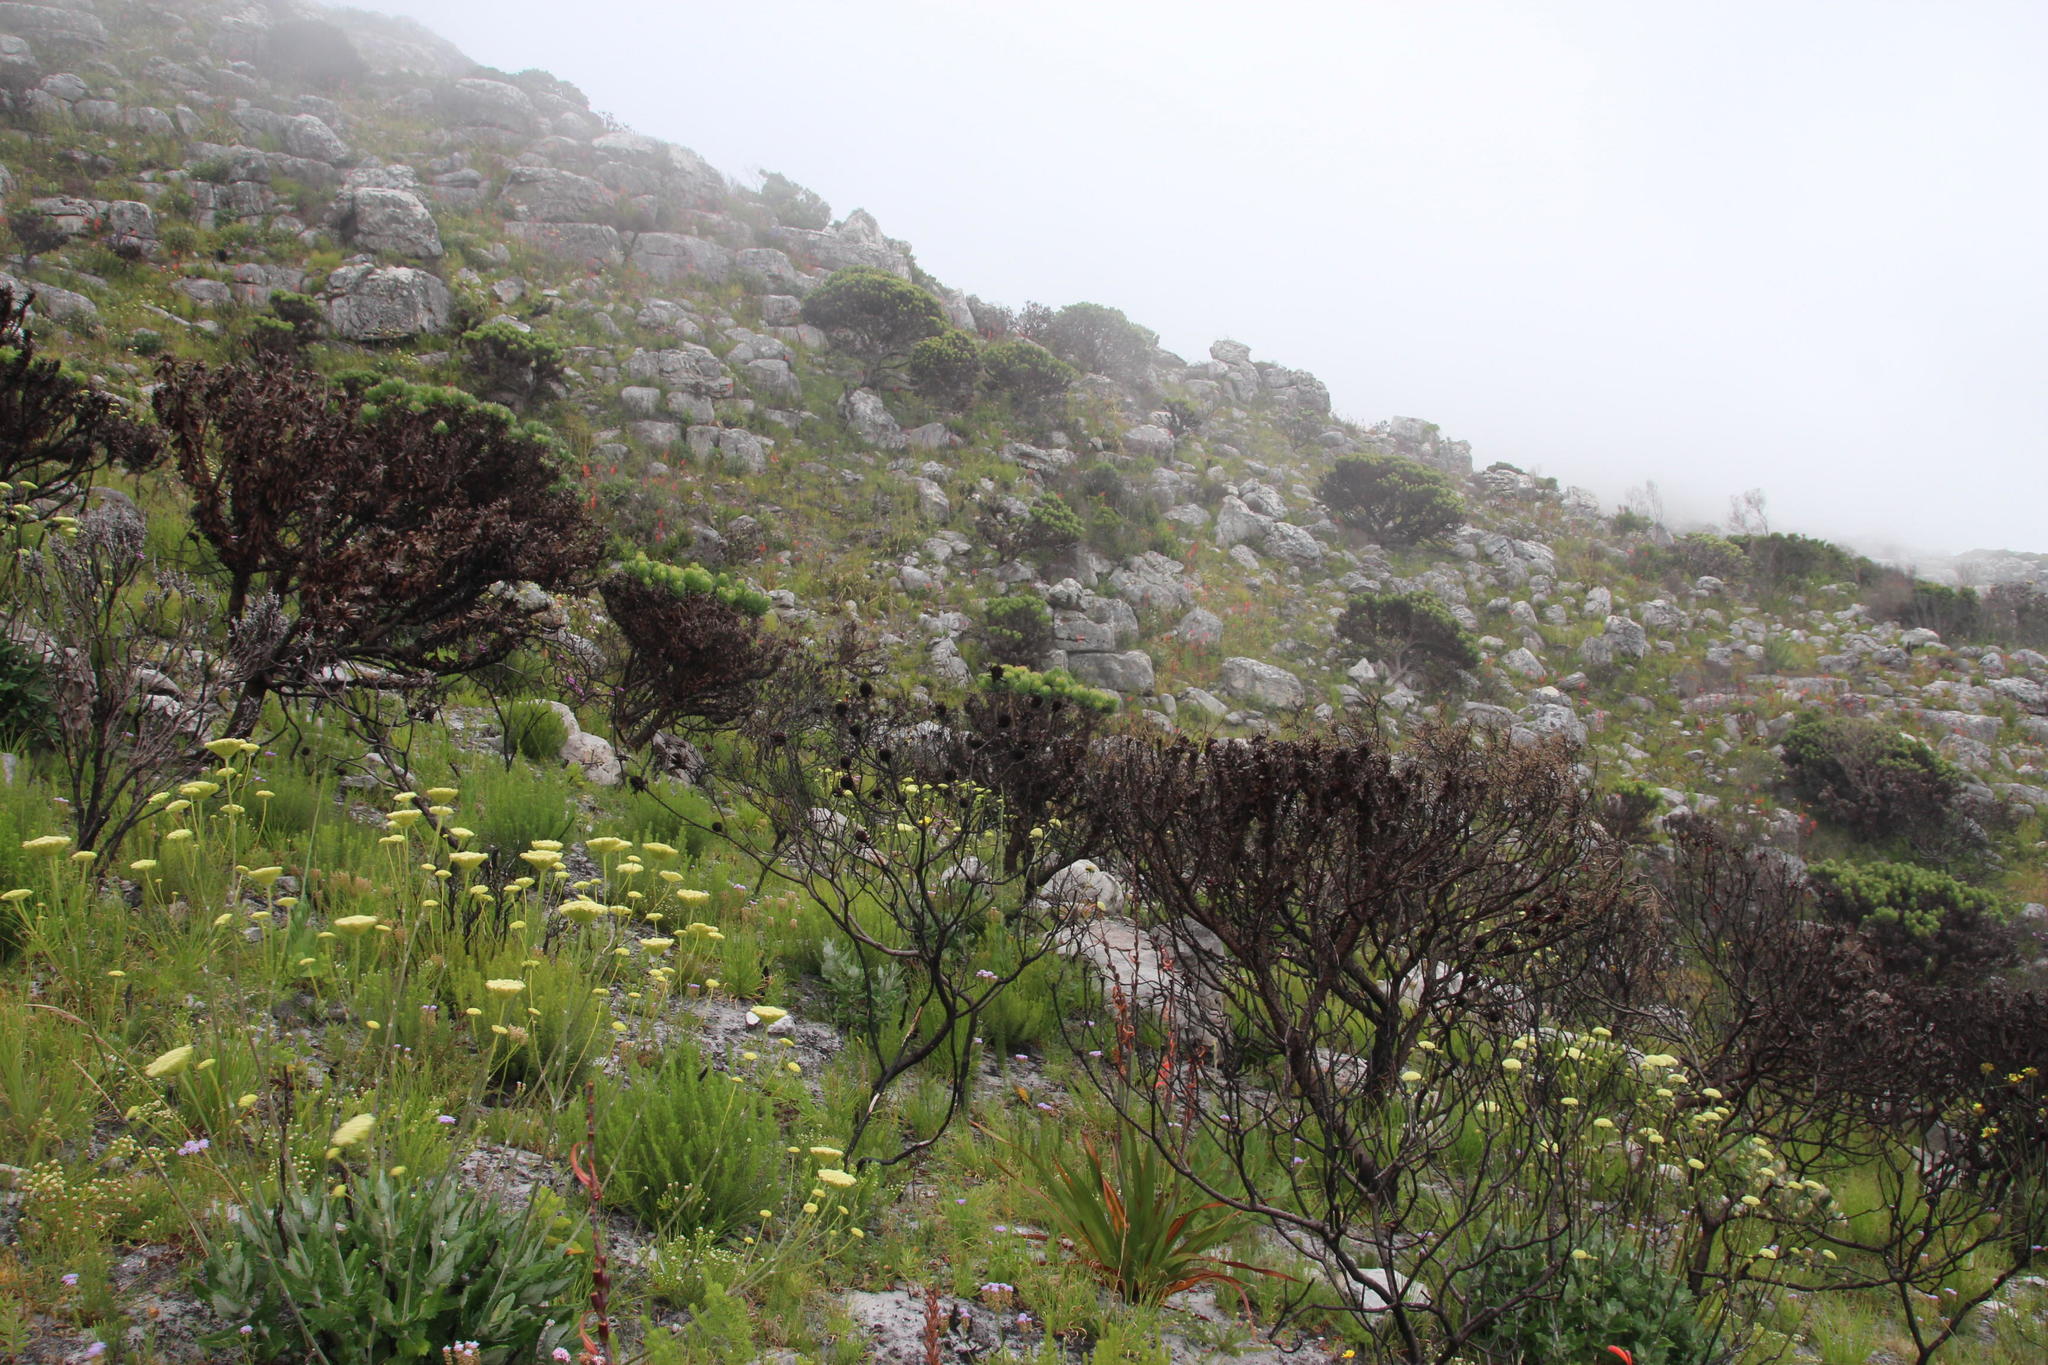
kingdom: Plantae
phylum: Tracheophyta
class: Magnoliopsida
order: Proteales
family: Proteaceae
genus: Mimetes
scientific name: Mimetes fimbriifolius
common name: Fringed bottlebrush
